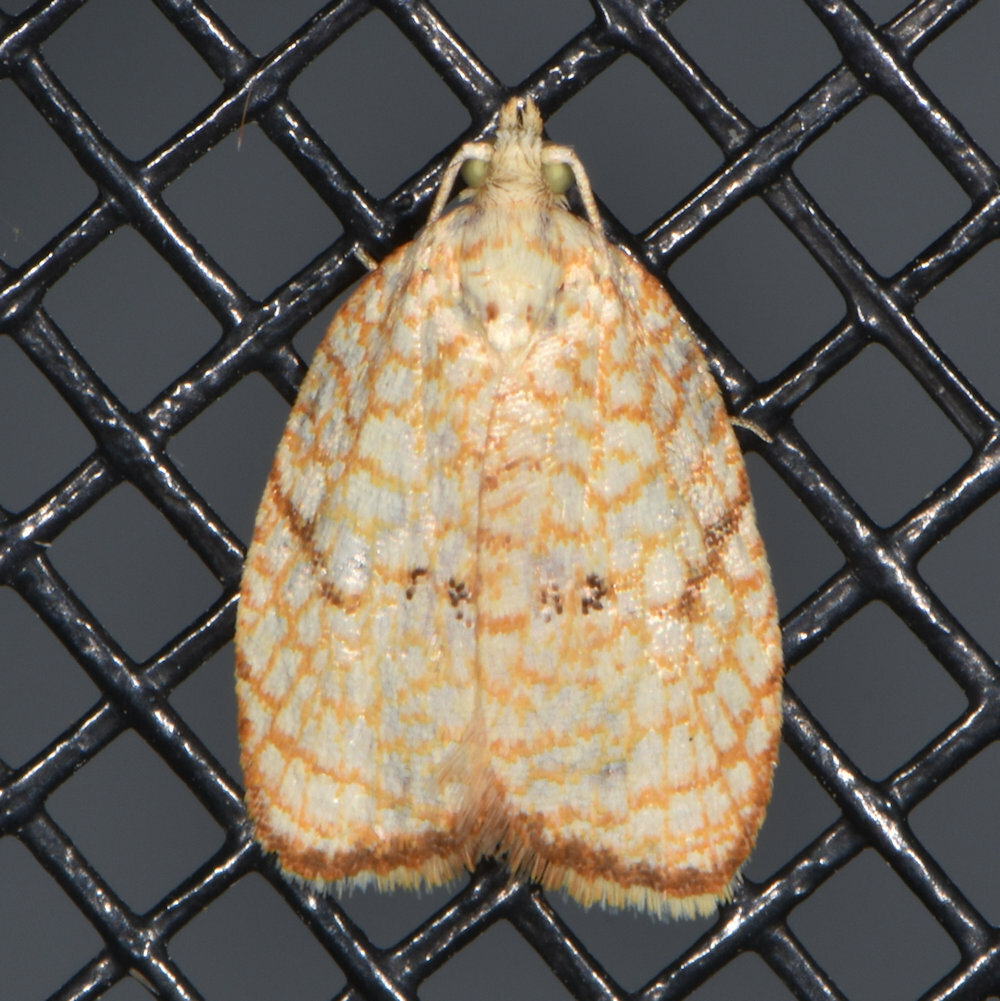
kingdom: Animalia
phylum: Arthropoda
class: Insecta
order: Lepidoptera
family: Tortricidae
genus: Acleris
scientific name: Acleris forsskaleana
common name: Maple button
